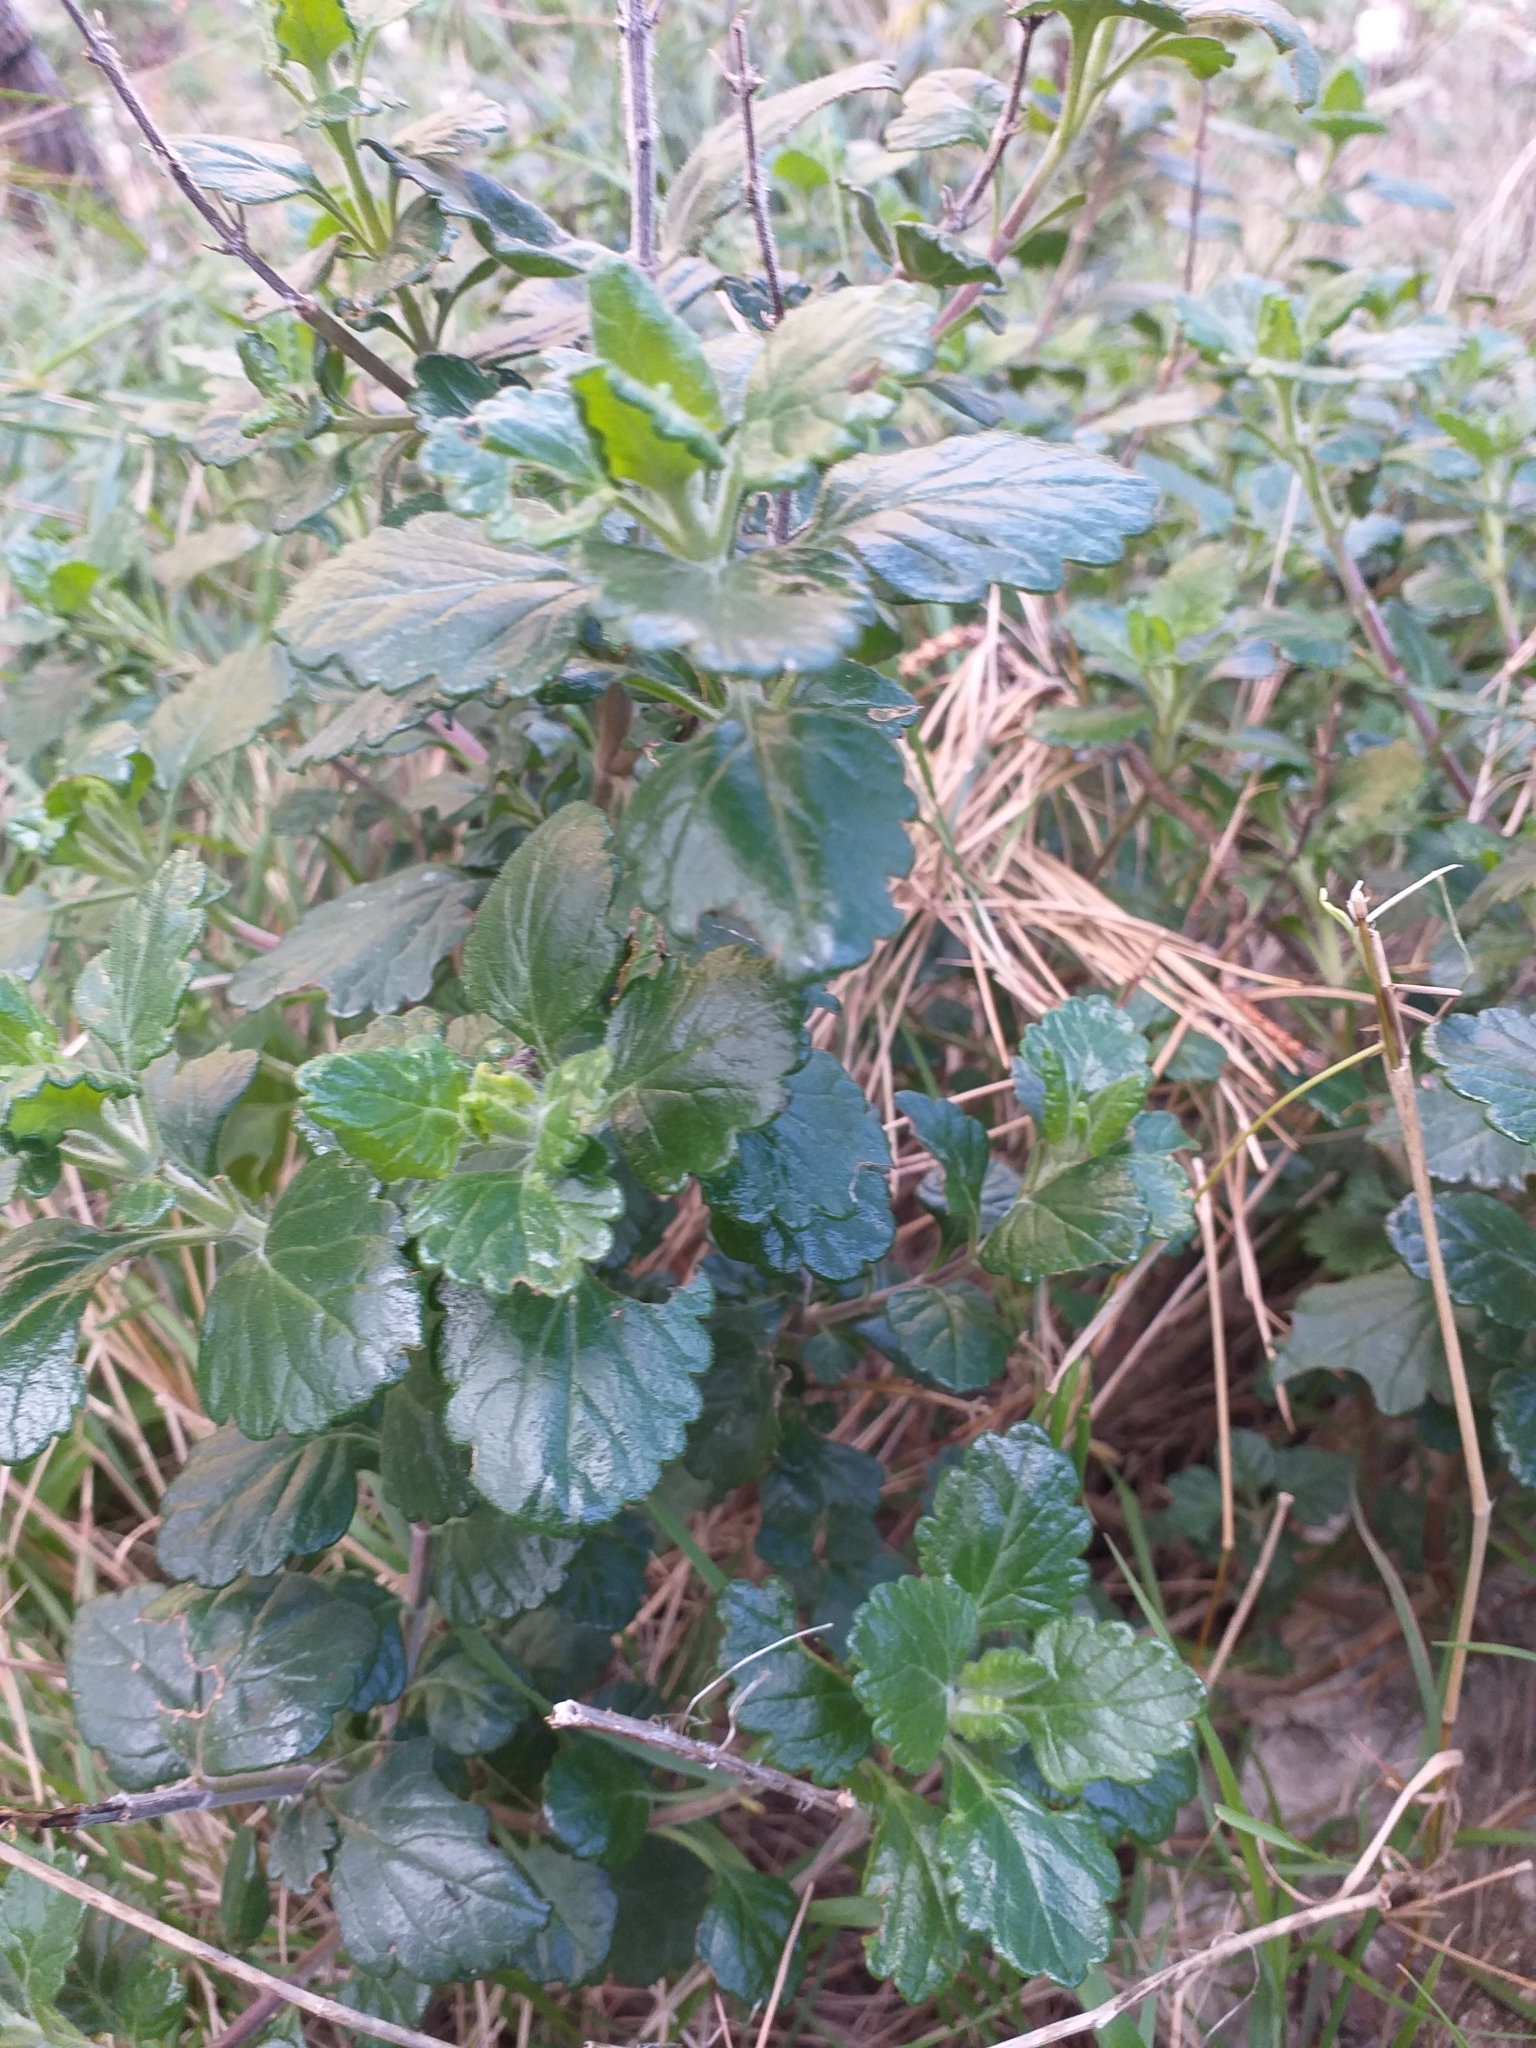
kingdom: Plantae
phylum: Tracheophyta
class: Magnoliopsida
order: Lamiales
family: Lamiaceae
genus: Teucrium
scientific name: Teucrium flavum
